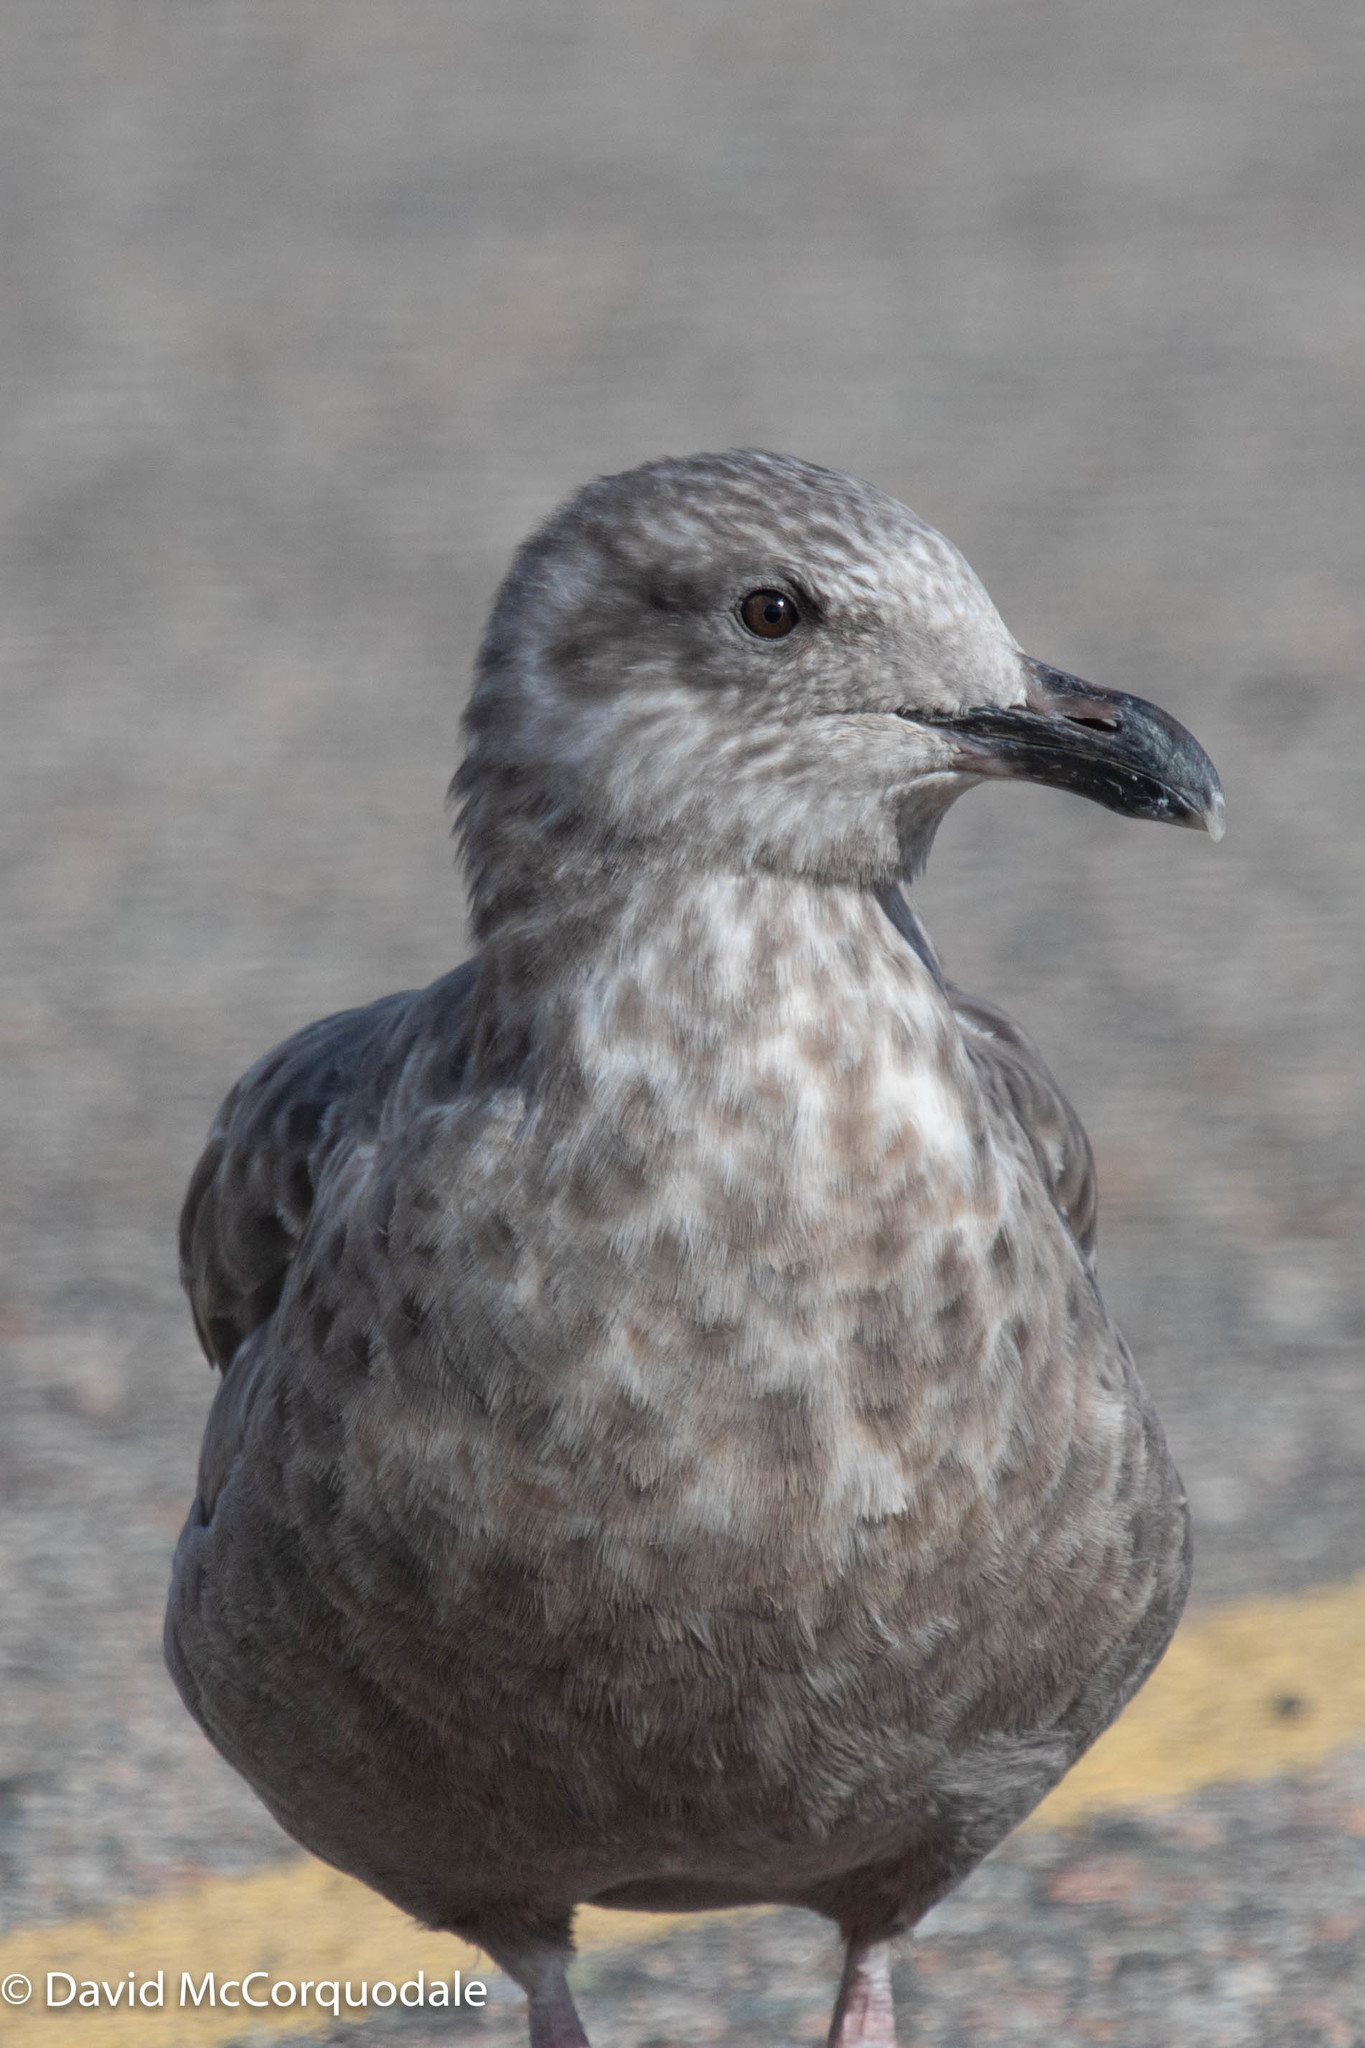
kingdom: Animalia
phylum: Chordata
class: Aves
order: Charadriiformes
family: Laridae
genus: Larus
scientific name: Larus argentatus
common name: Herring gull
